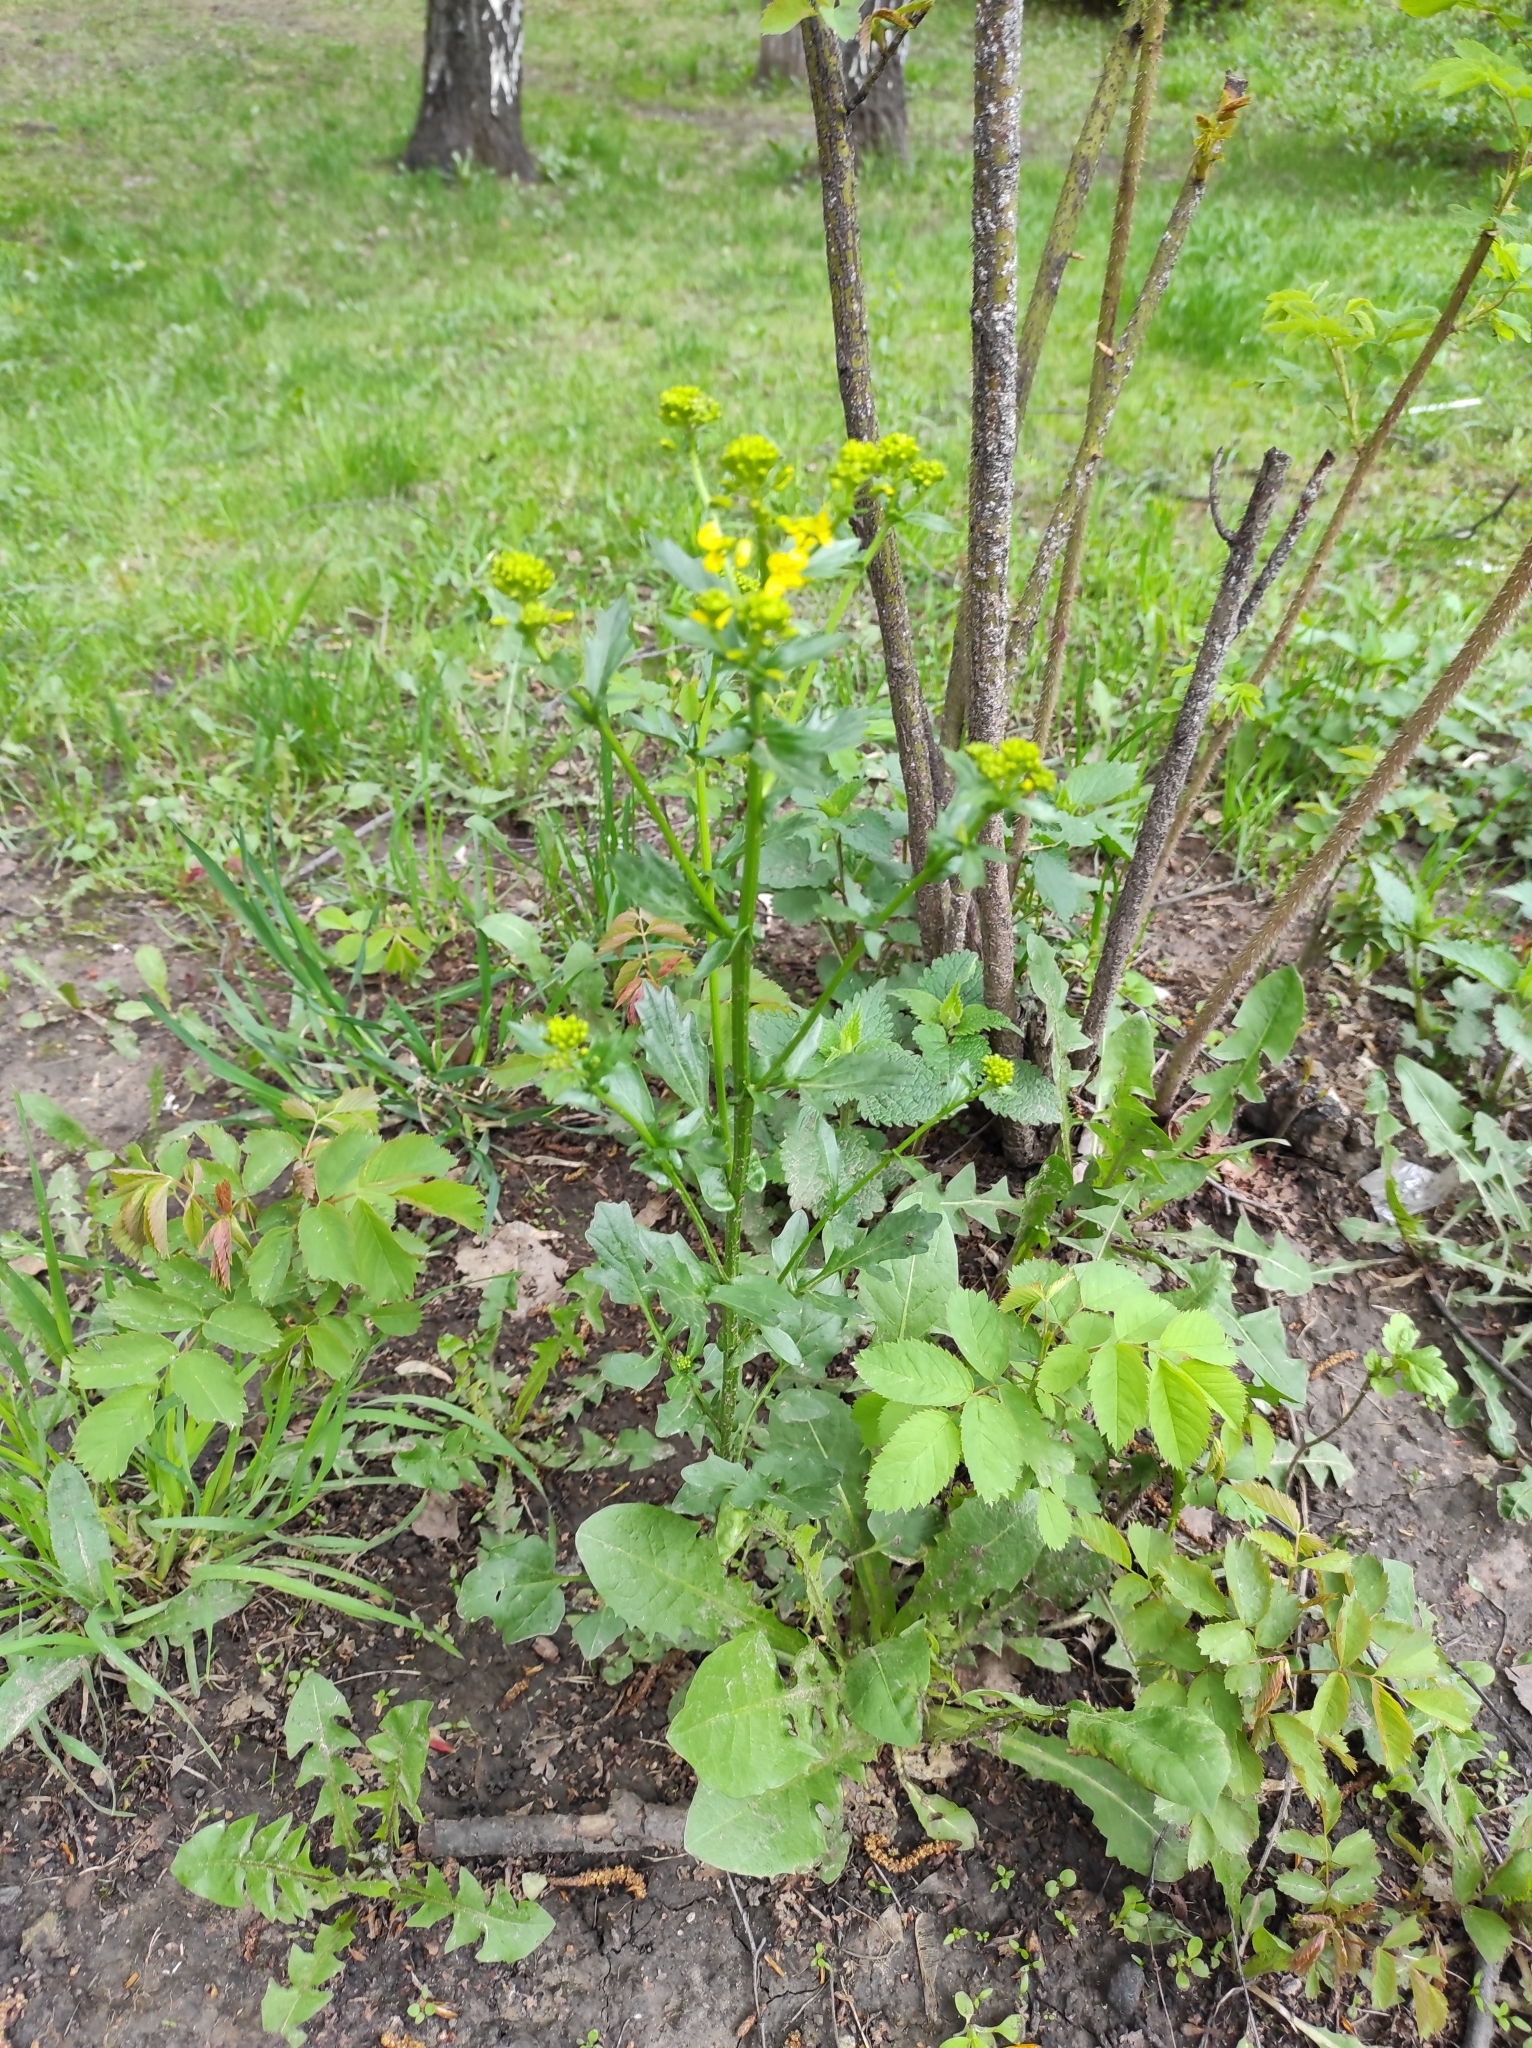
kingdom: Plantae
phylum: Tracheophyta
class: Magnoliopsida
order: Brassicales
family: Brassicaceae
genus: Barbarea
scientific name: Barbarea vulgaris
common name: Cressy-greens
